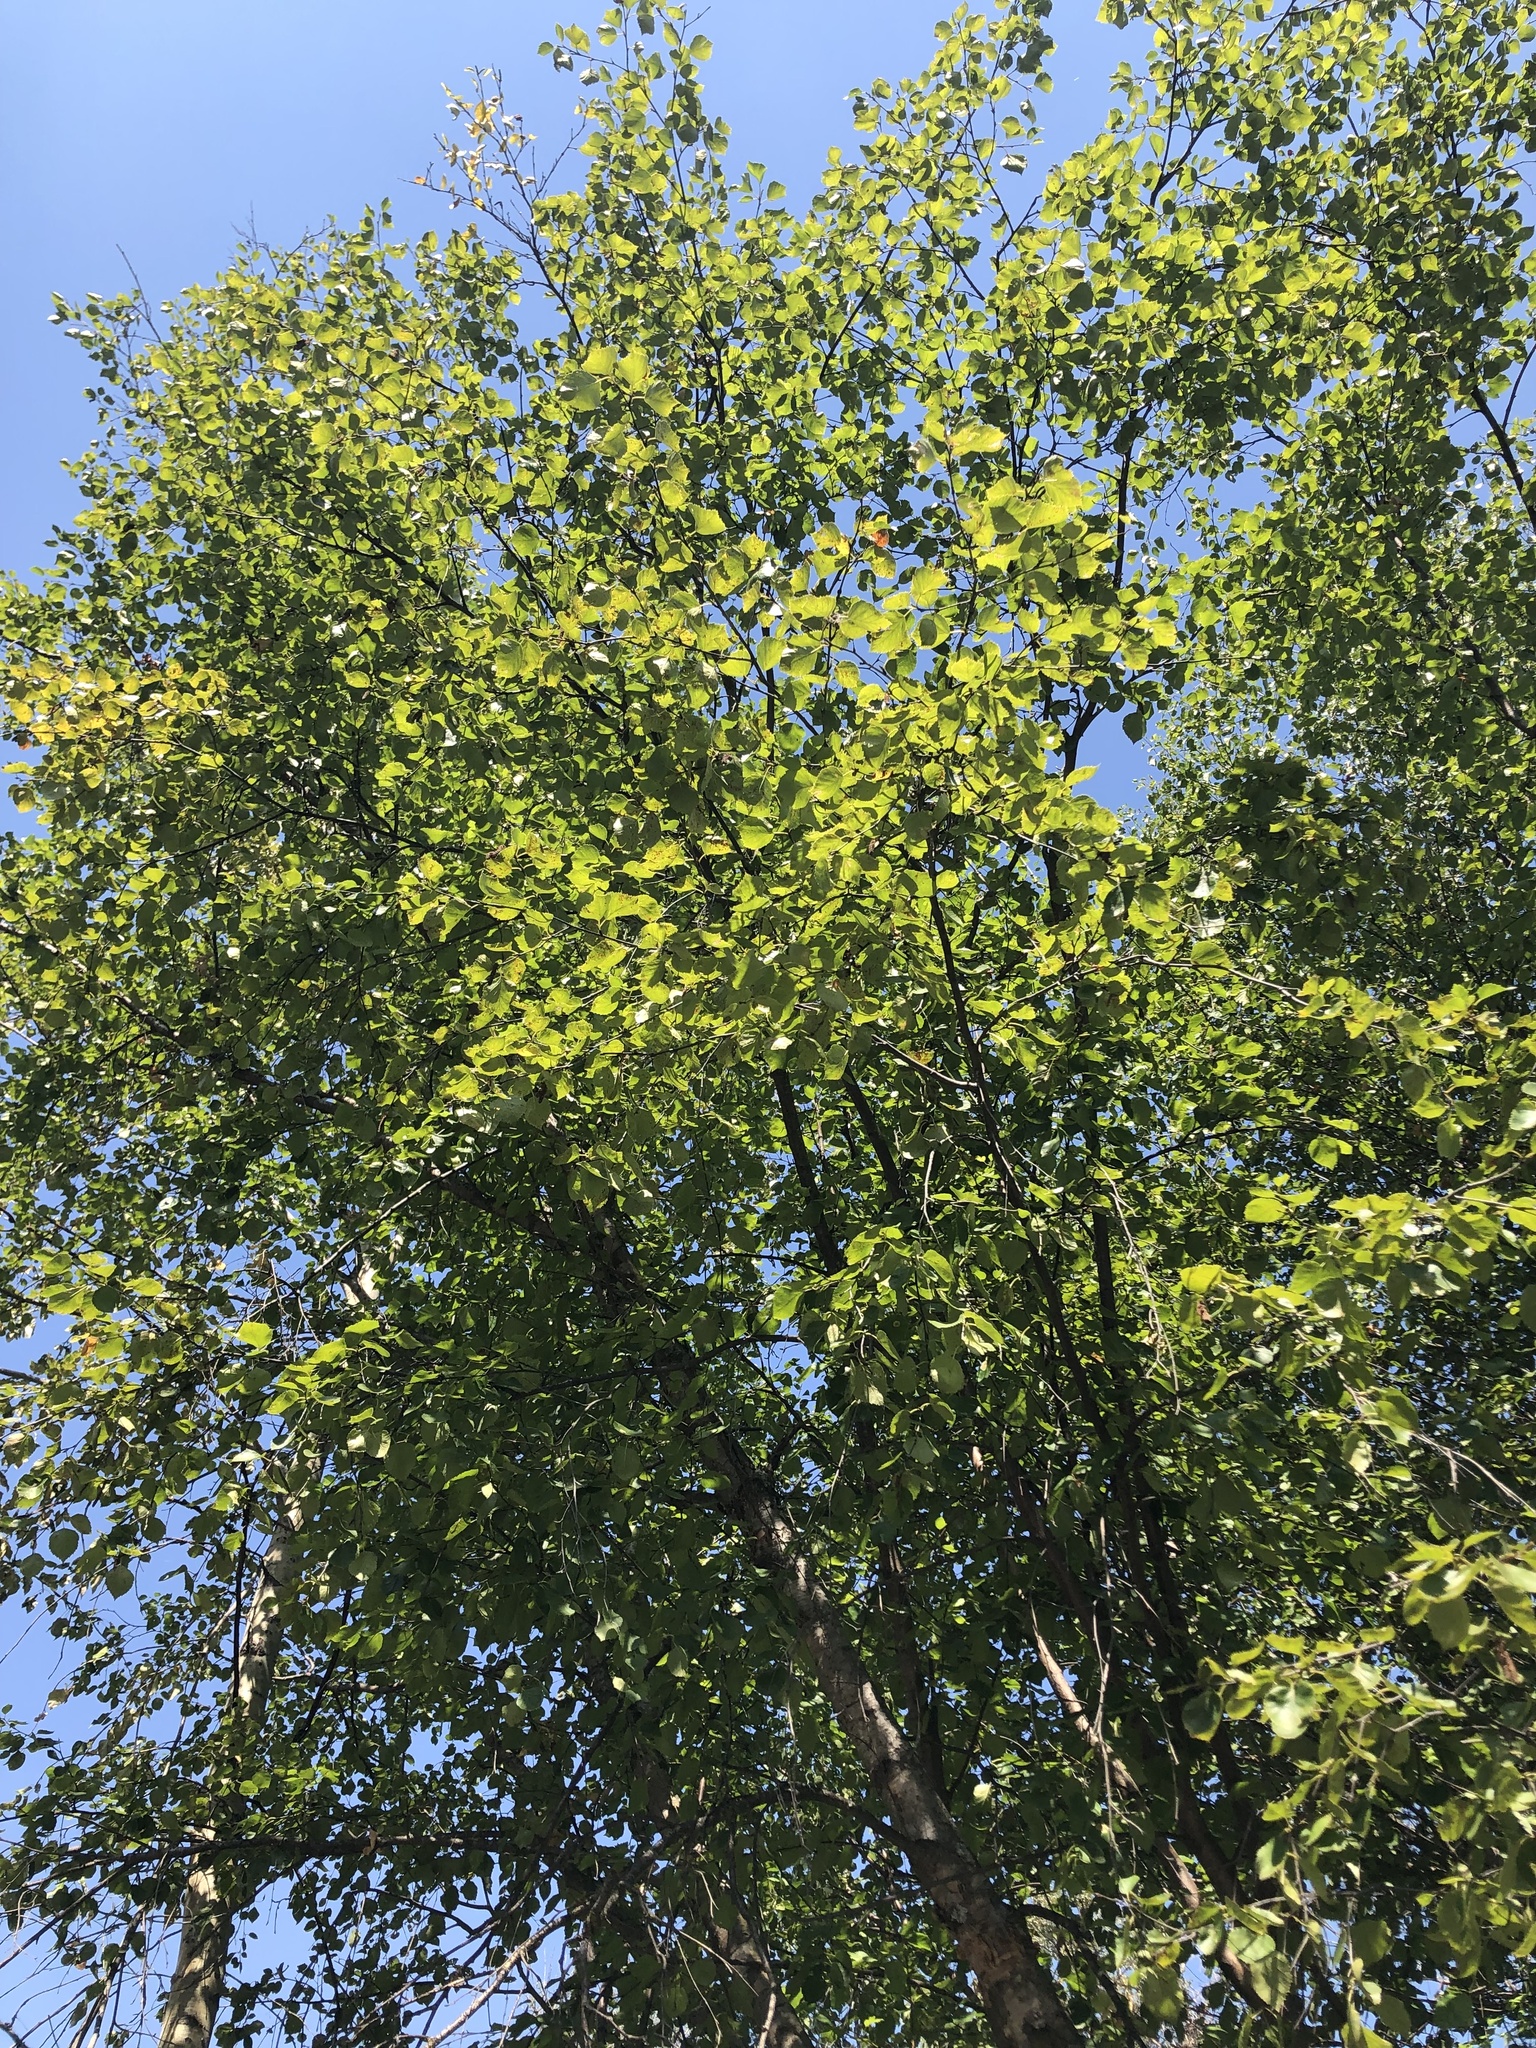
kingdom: Plantae
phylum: Tracheophyta
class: Magnoliopsida
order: Fagales
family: Betulaceae
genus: Betula
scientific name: Betula occidentalis
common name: River birch
